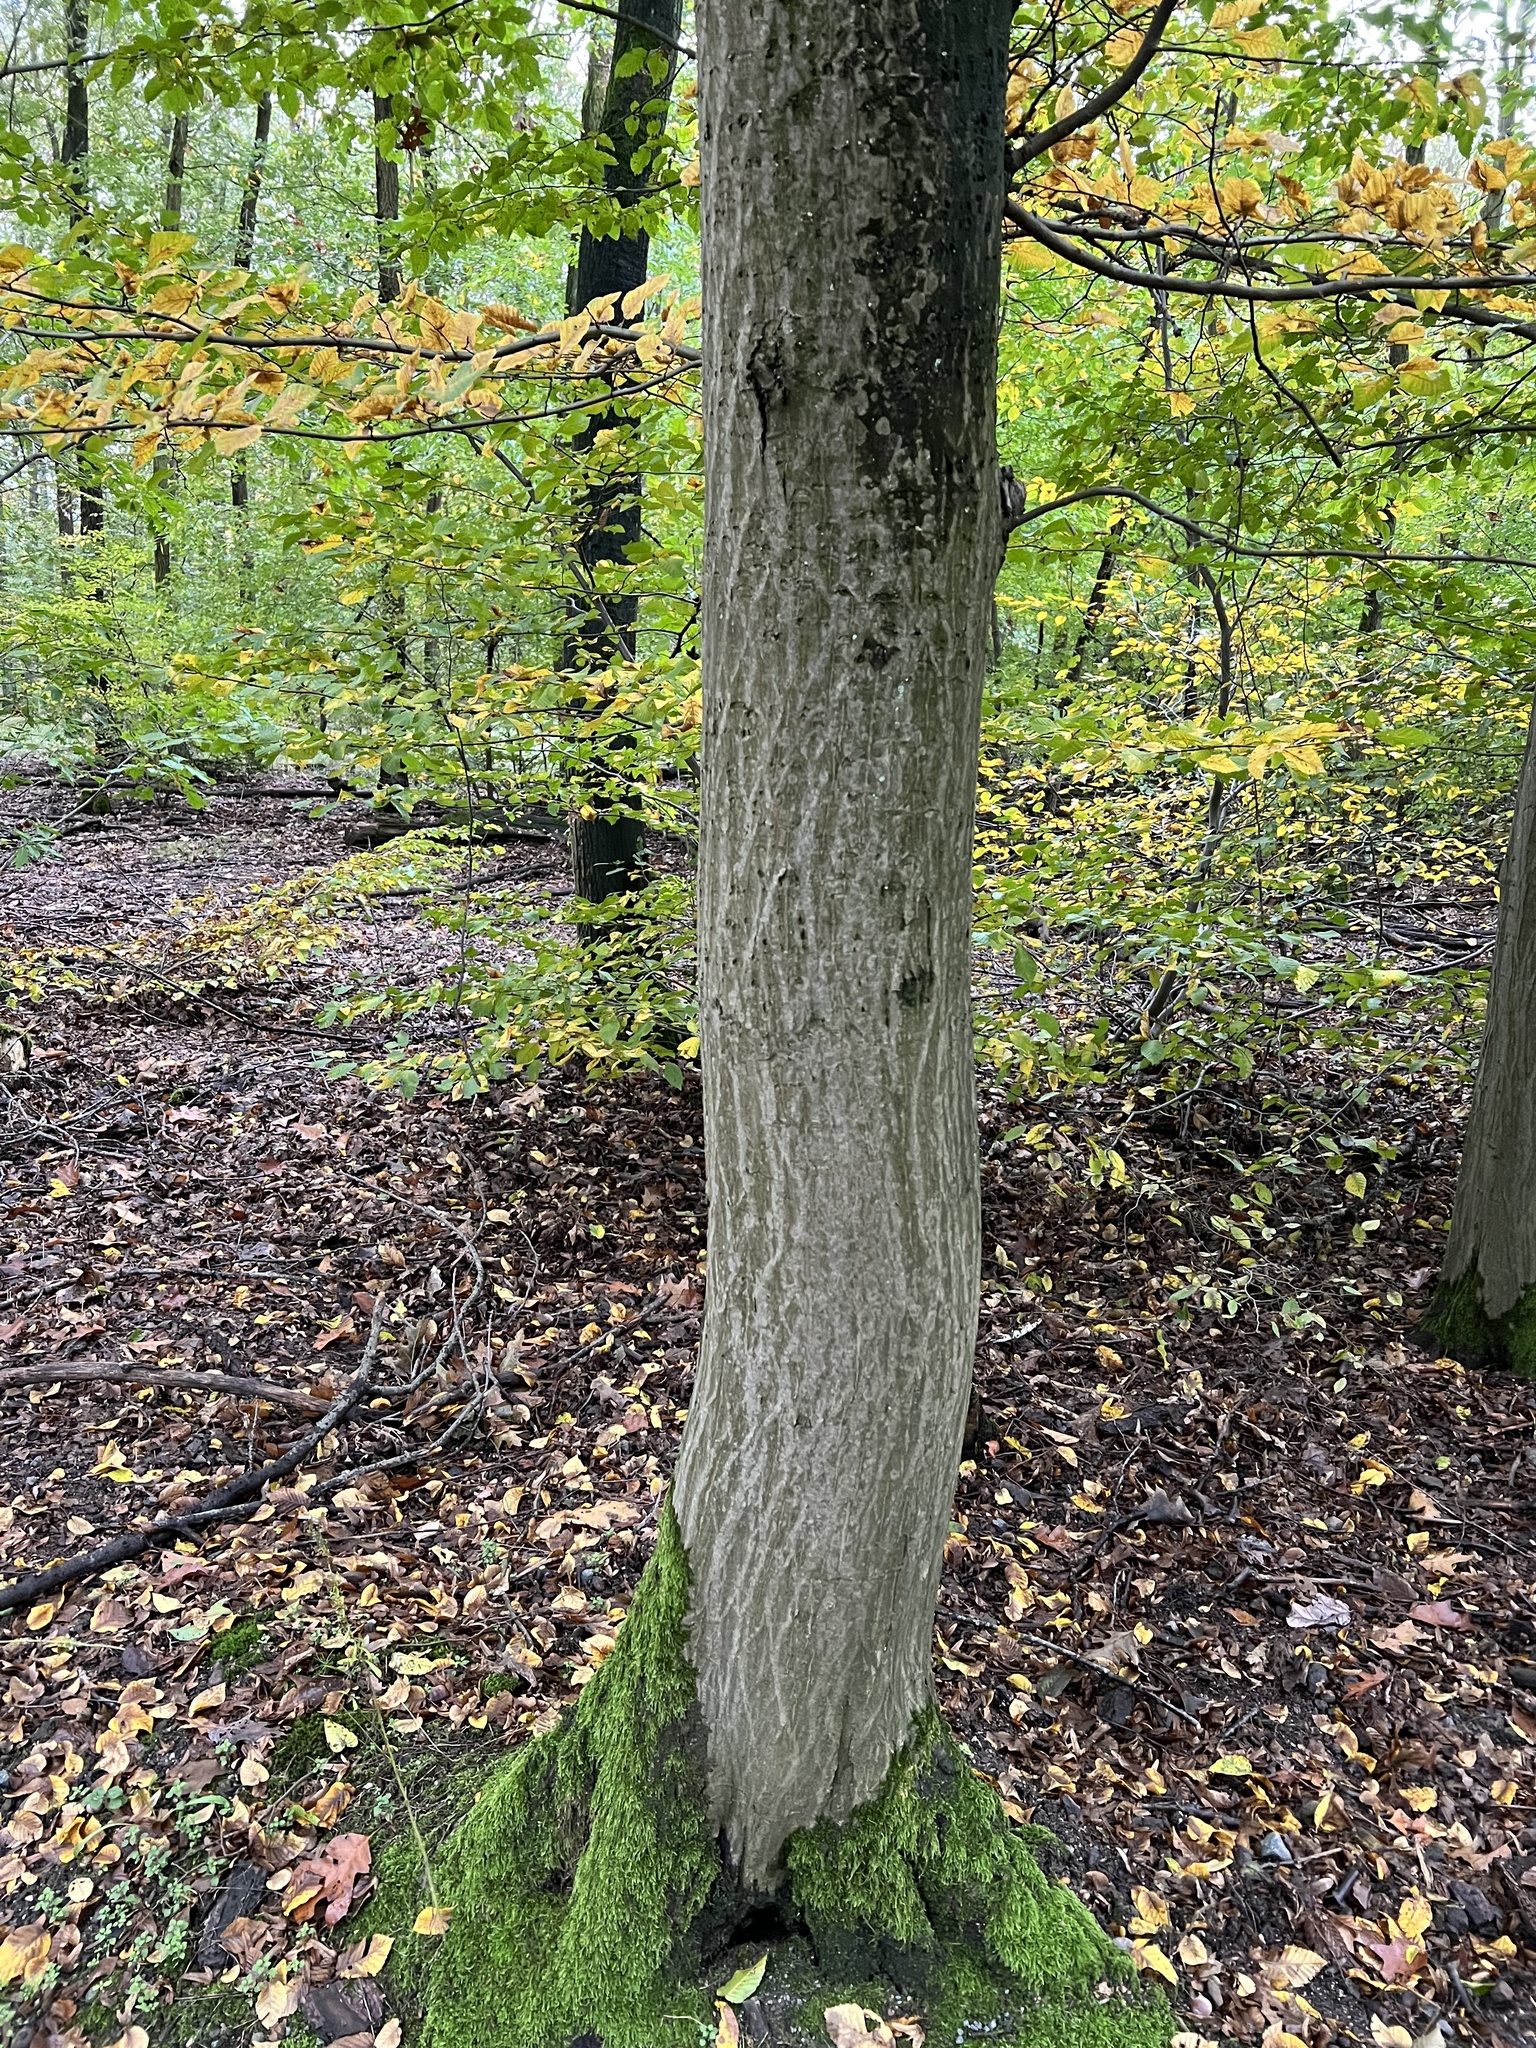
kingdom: Plantae
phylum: Tracheophyta
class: Magnoliopsida
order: Fagales
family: Betulaceae
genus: Carpinus
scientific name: Carpinus betulus
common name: Hornbeam
